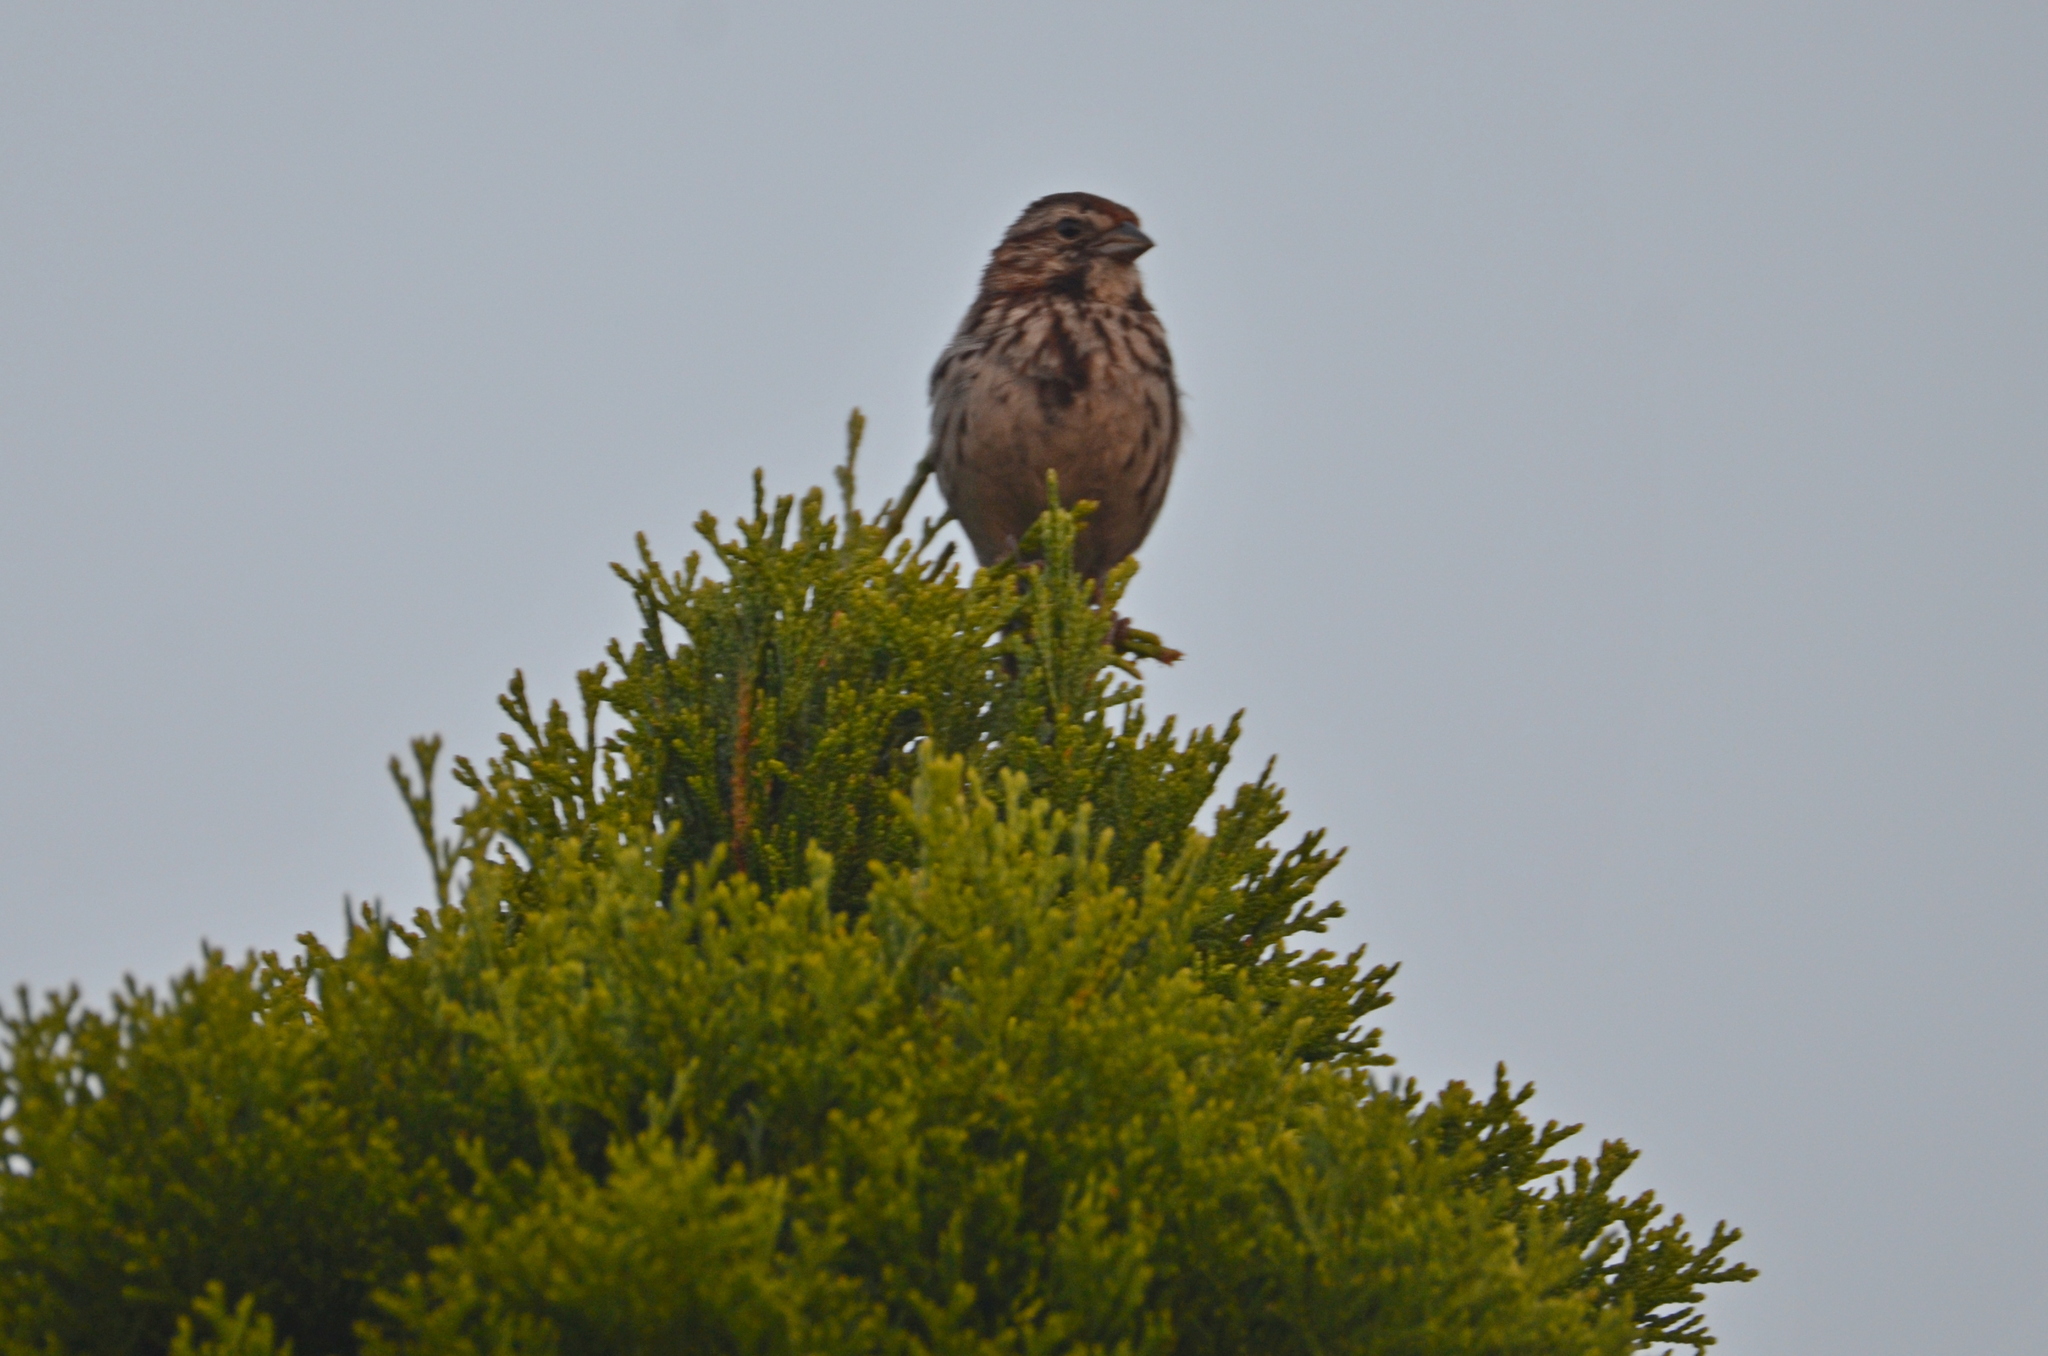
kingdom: Animalia
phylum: Chordata
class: Aves
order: Passeriformes
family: Passerellidae
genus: Melospiza
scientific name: Melospiza melodia
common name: Song sparrow
